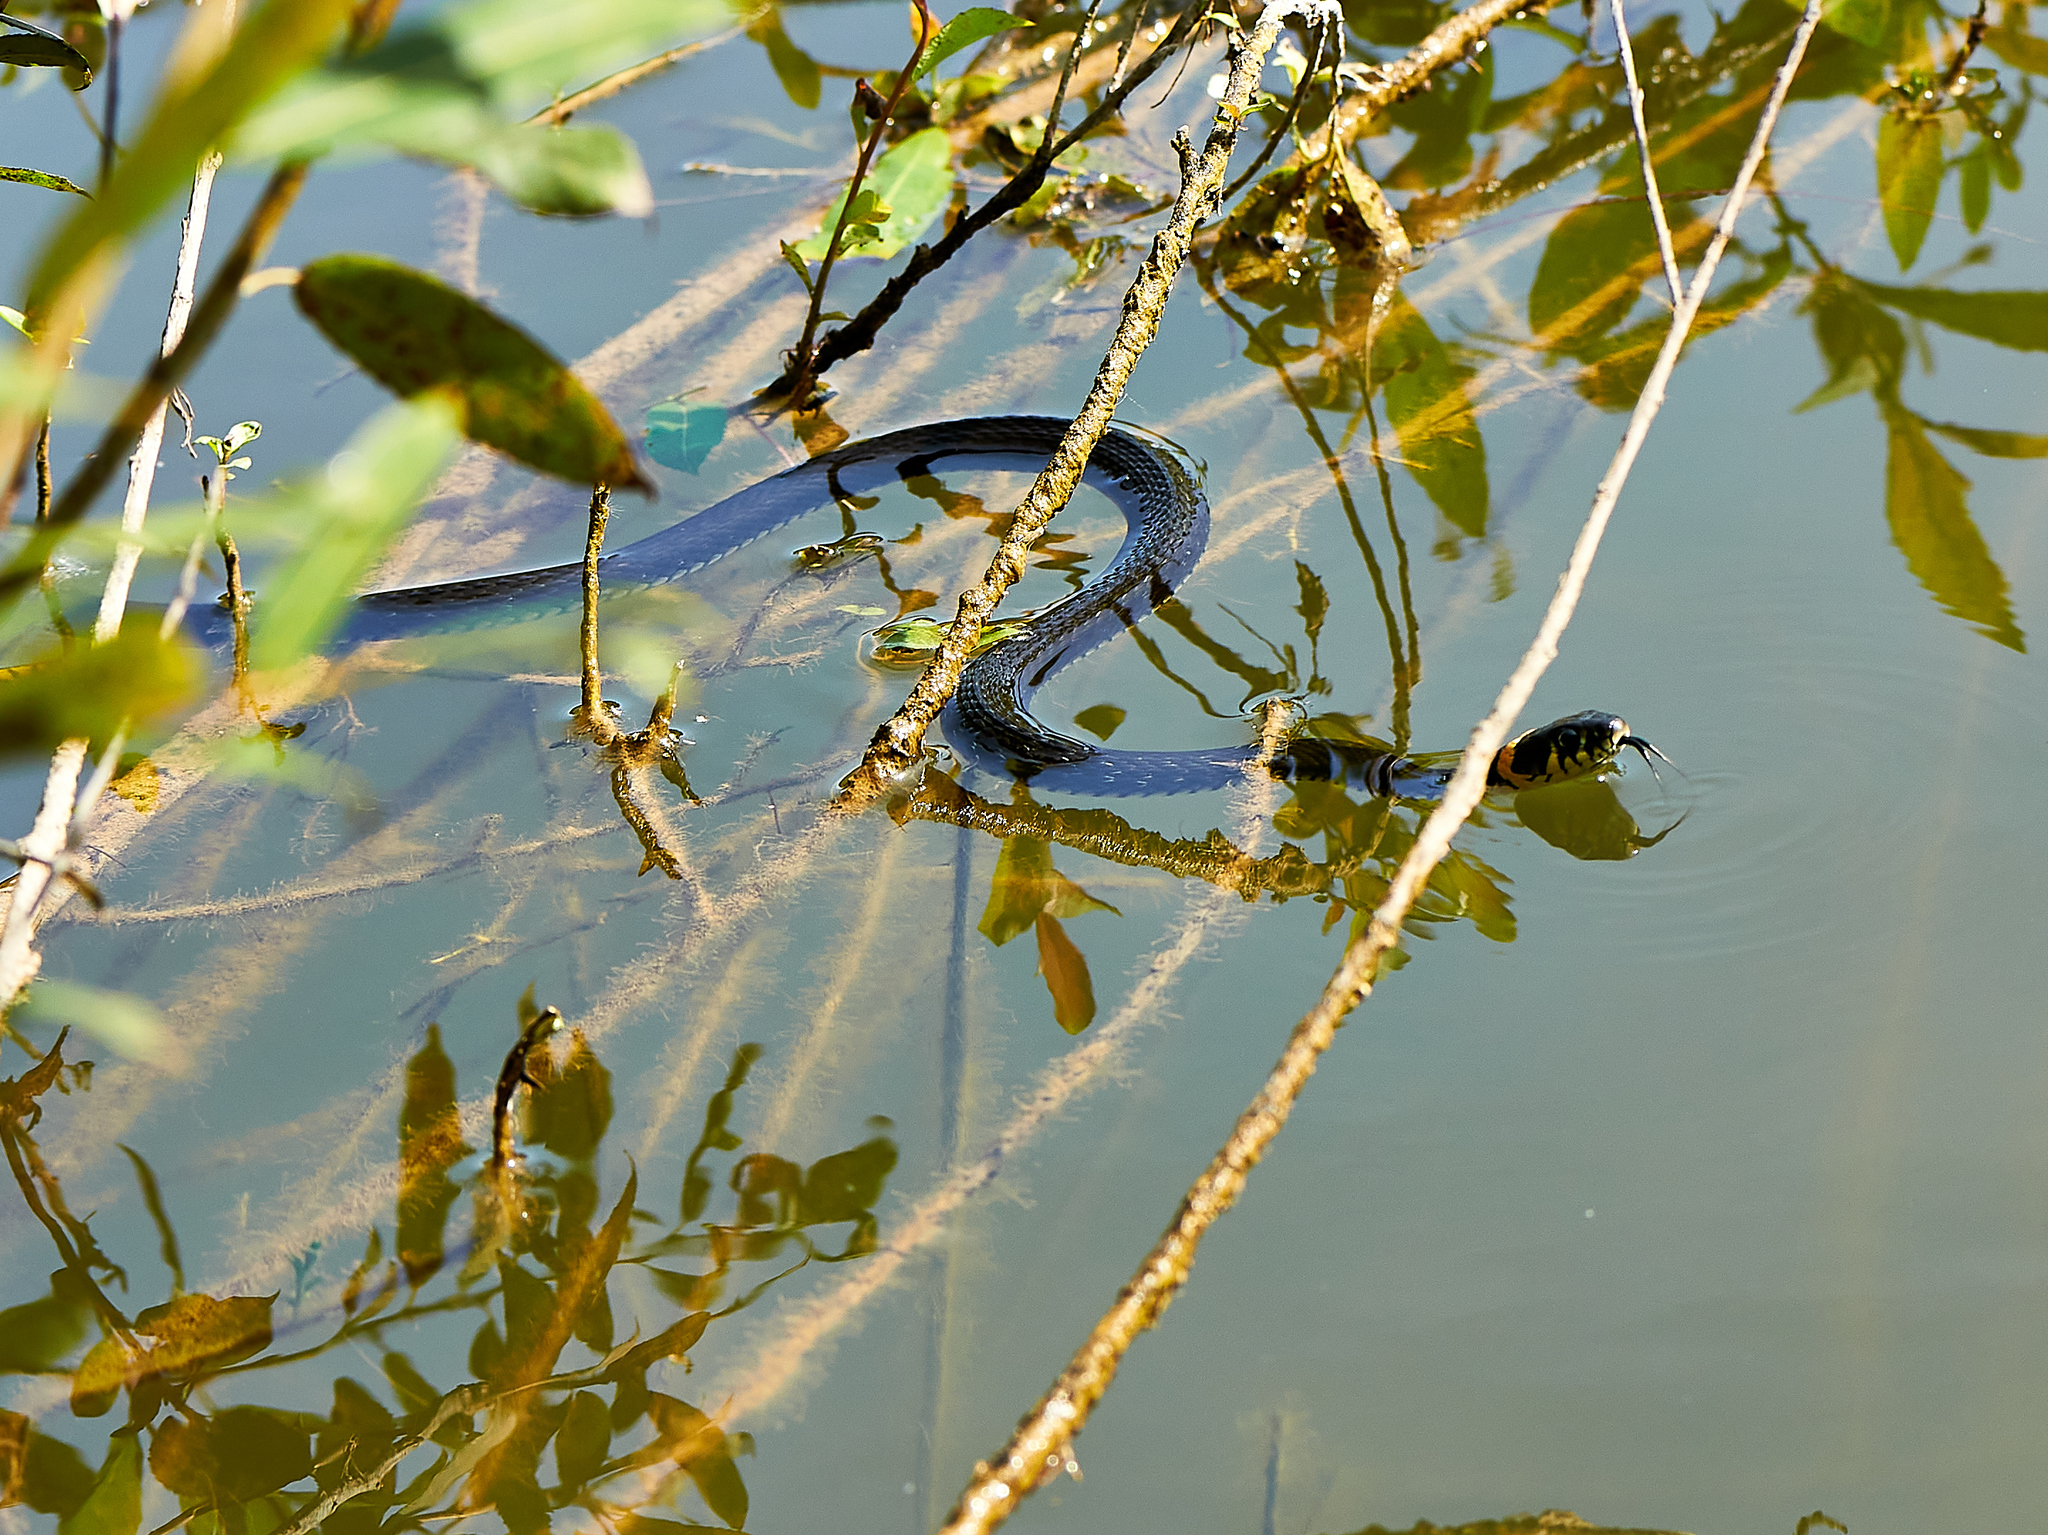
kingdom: Animalia
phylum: Chordata
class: Squamata
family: Colubridae
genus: Natrix
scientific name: Natrix natrix
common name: Grass snake
